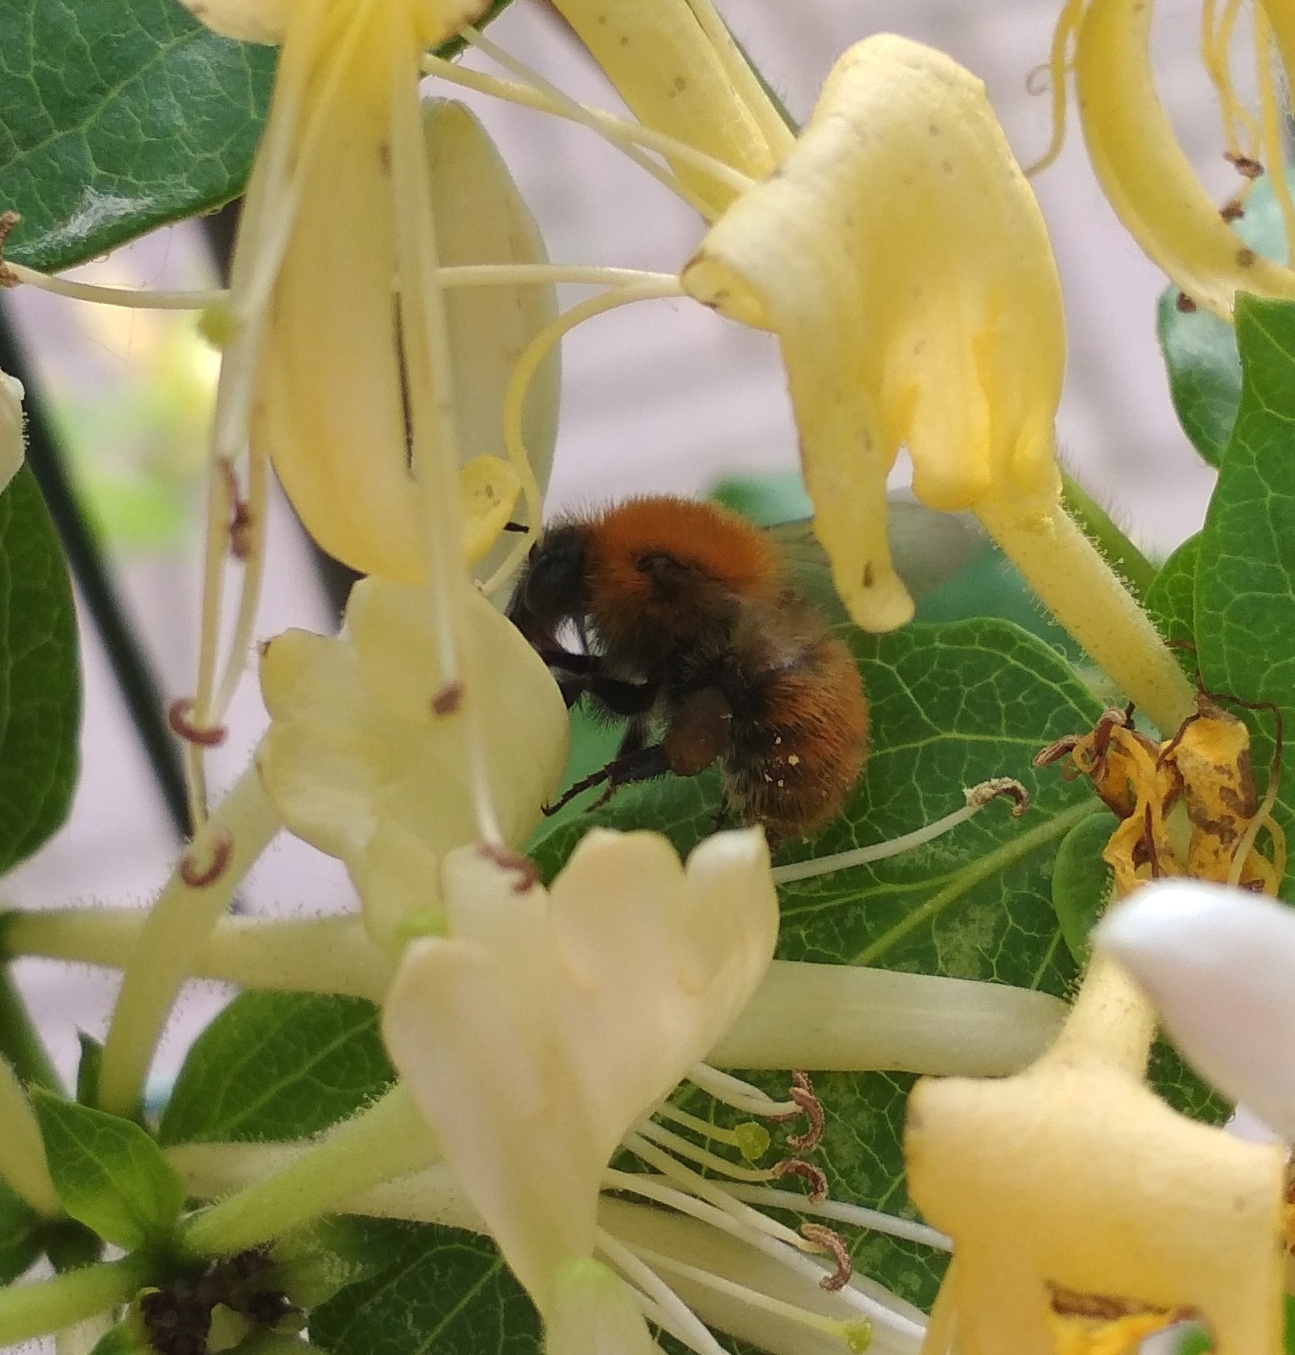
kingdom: Animalia
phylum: Arthropoda
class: Insecta
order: Hymenoptera
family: Apidae
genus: Bombus
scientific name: Bombus pascuorum
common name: Common carder bee
